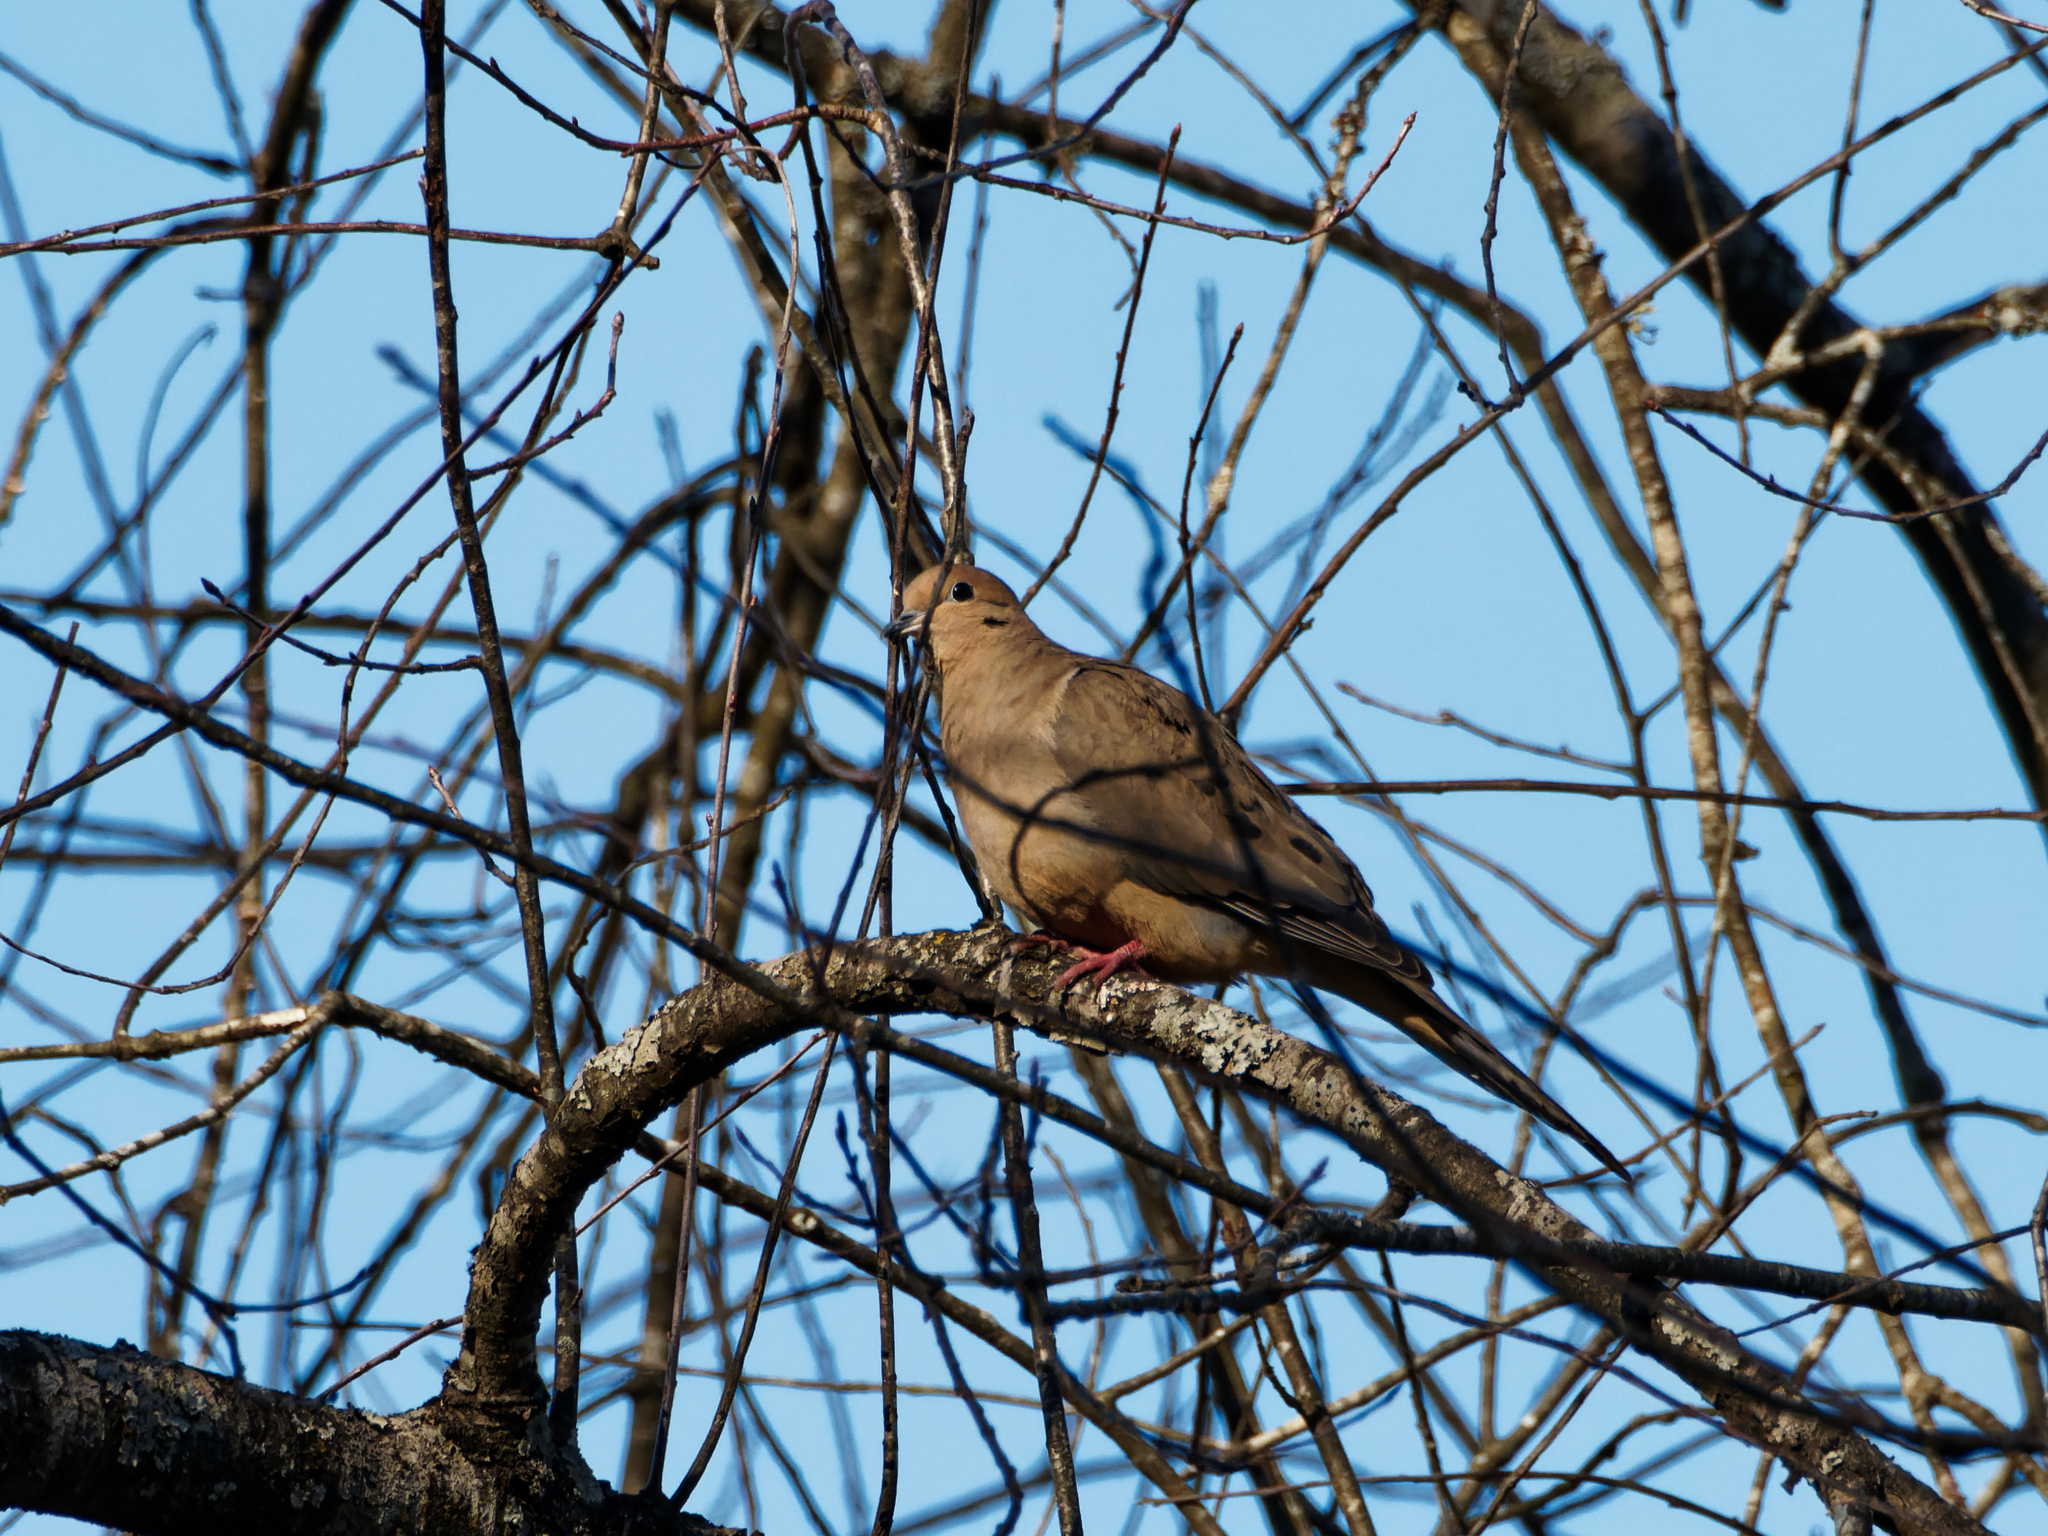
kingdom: Animalia
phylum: Chordata
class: Aves
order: Columbiformes
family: Columbidae
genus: Zenaida
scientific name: Zenaida macroura
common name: Mourning dove
